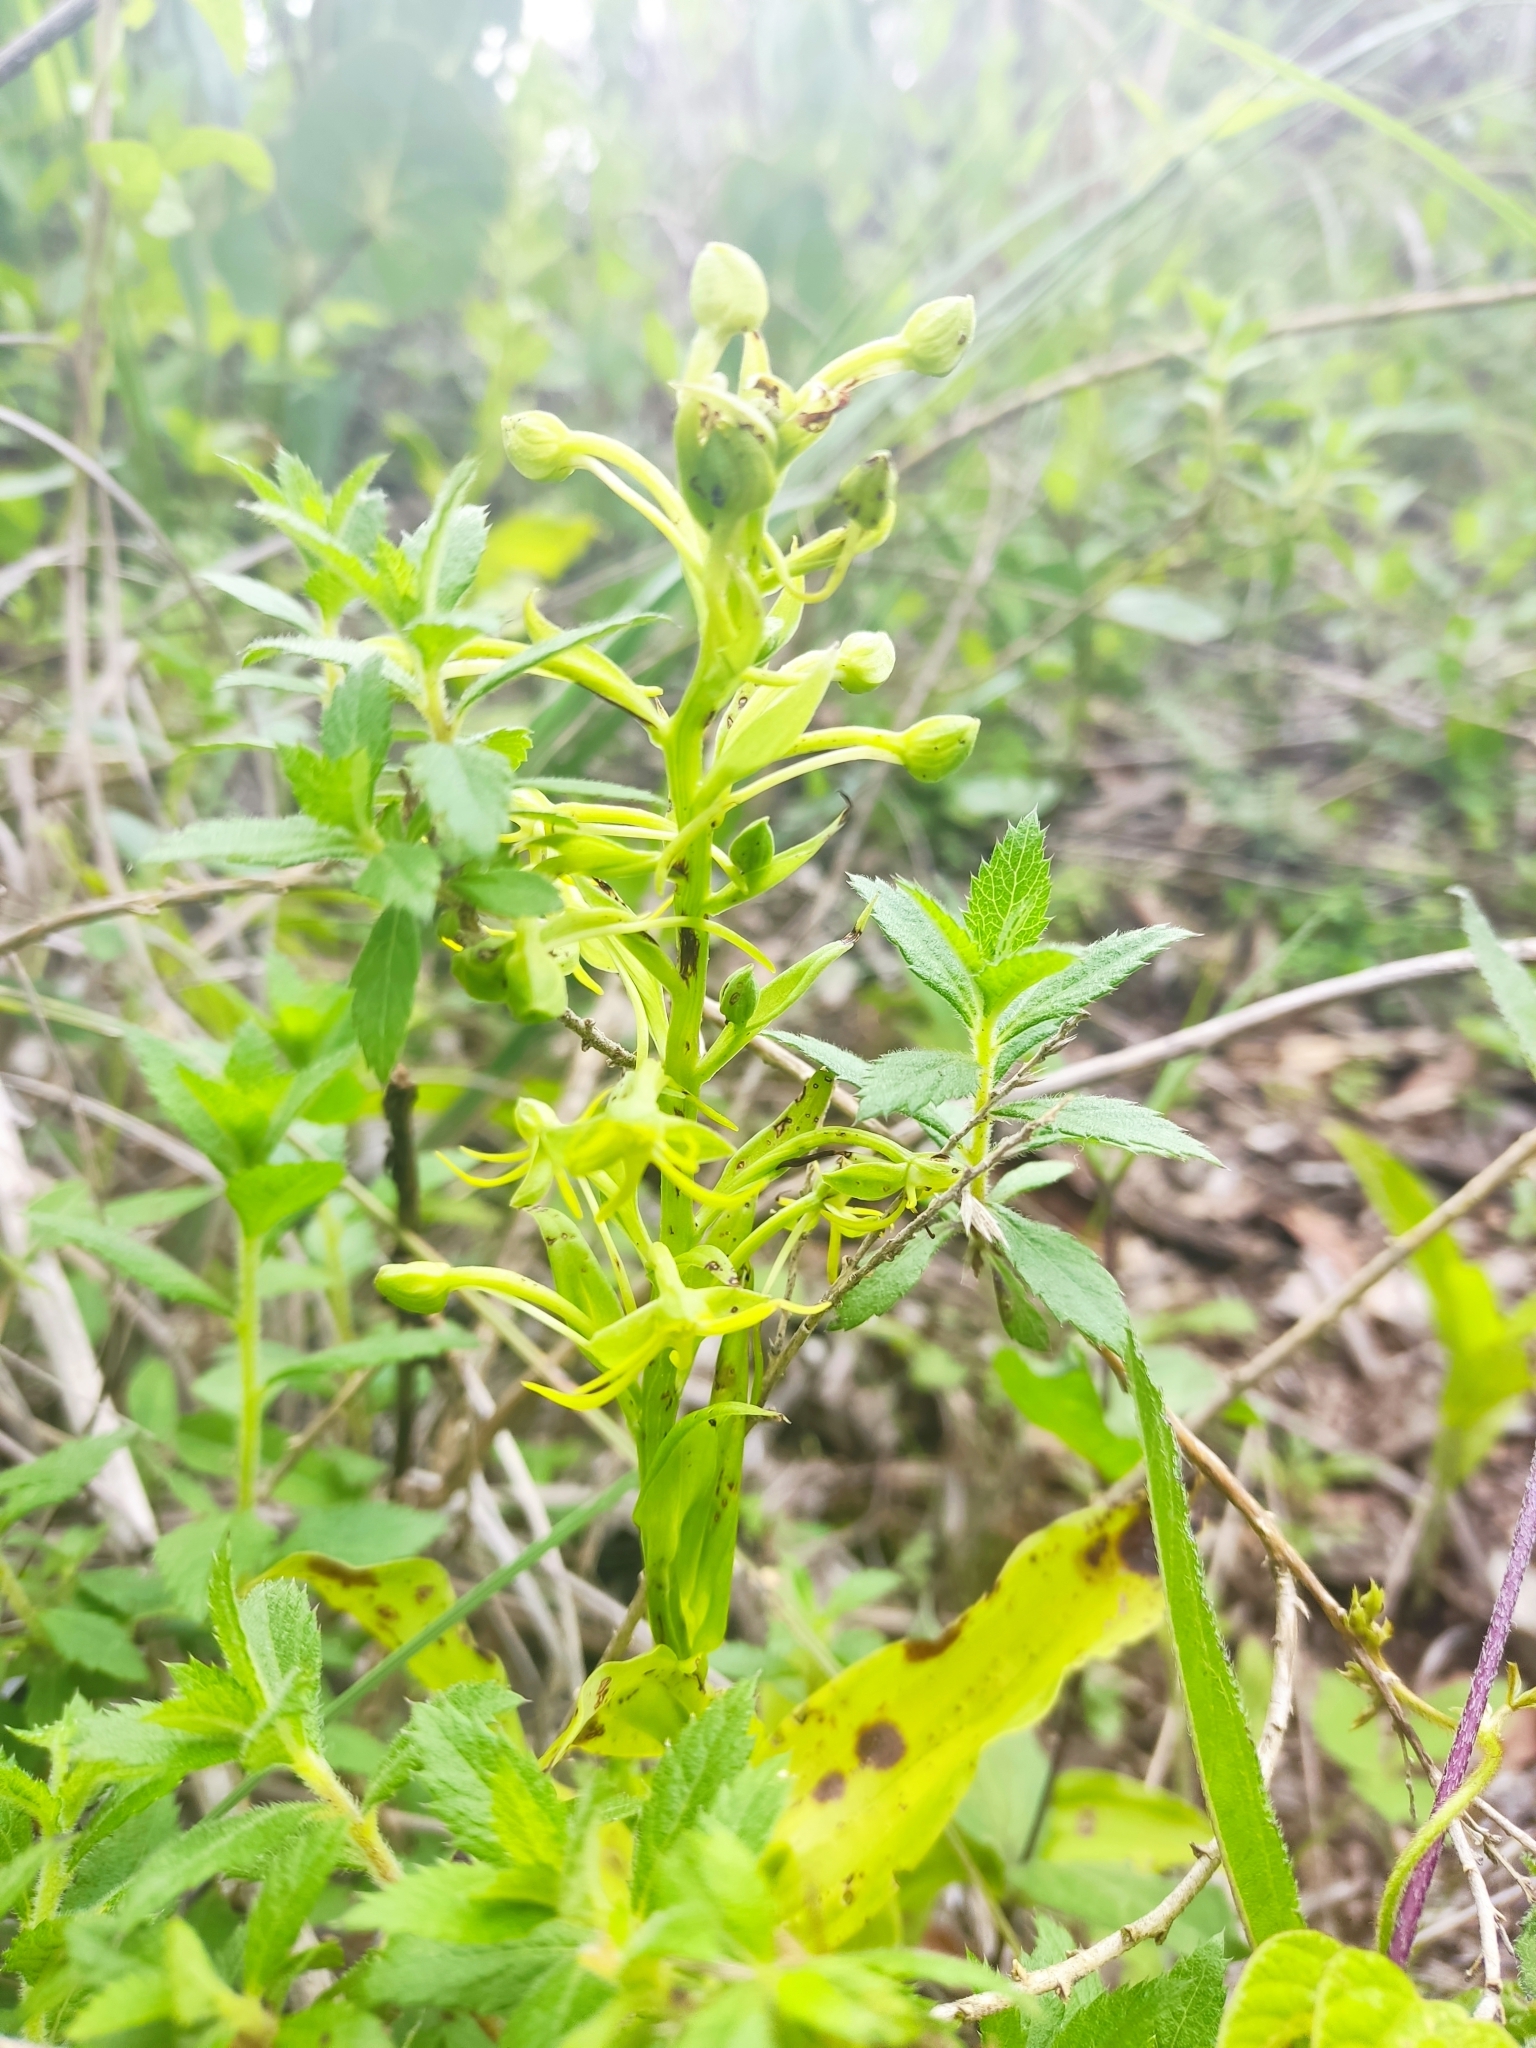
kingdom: Plantae
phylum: Tracheophyta
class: Liliopsida
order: Asparagales
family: Orchidaceae
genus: Habenaria
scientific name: Habenaria novemfida
